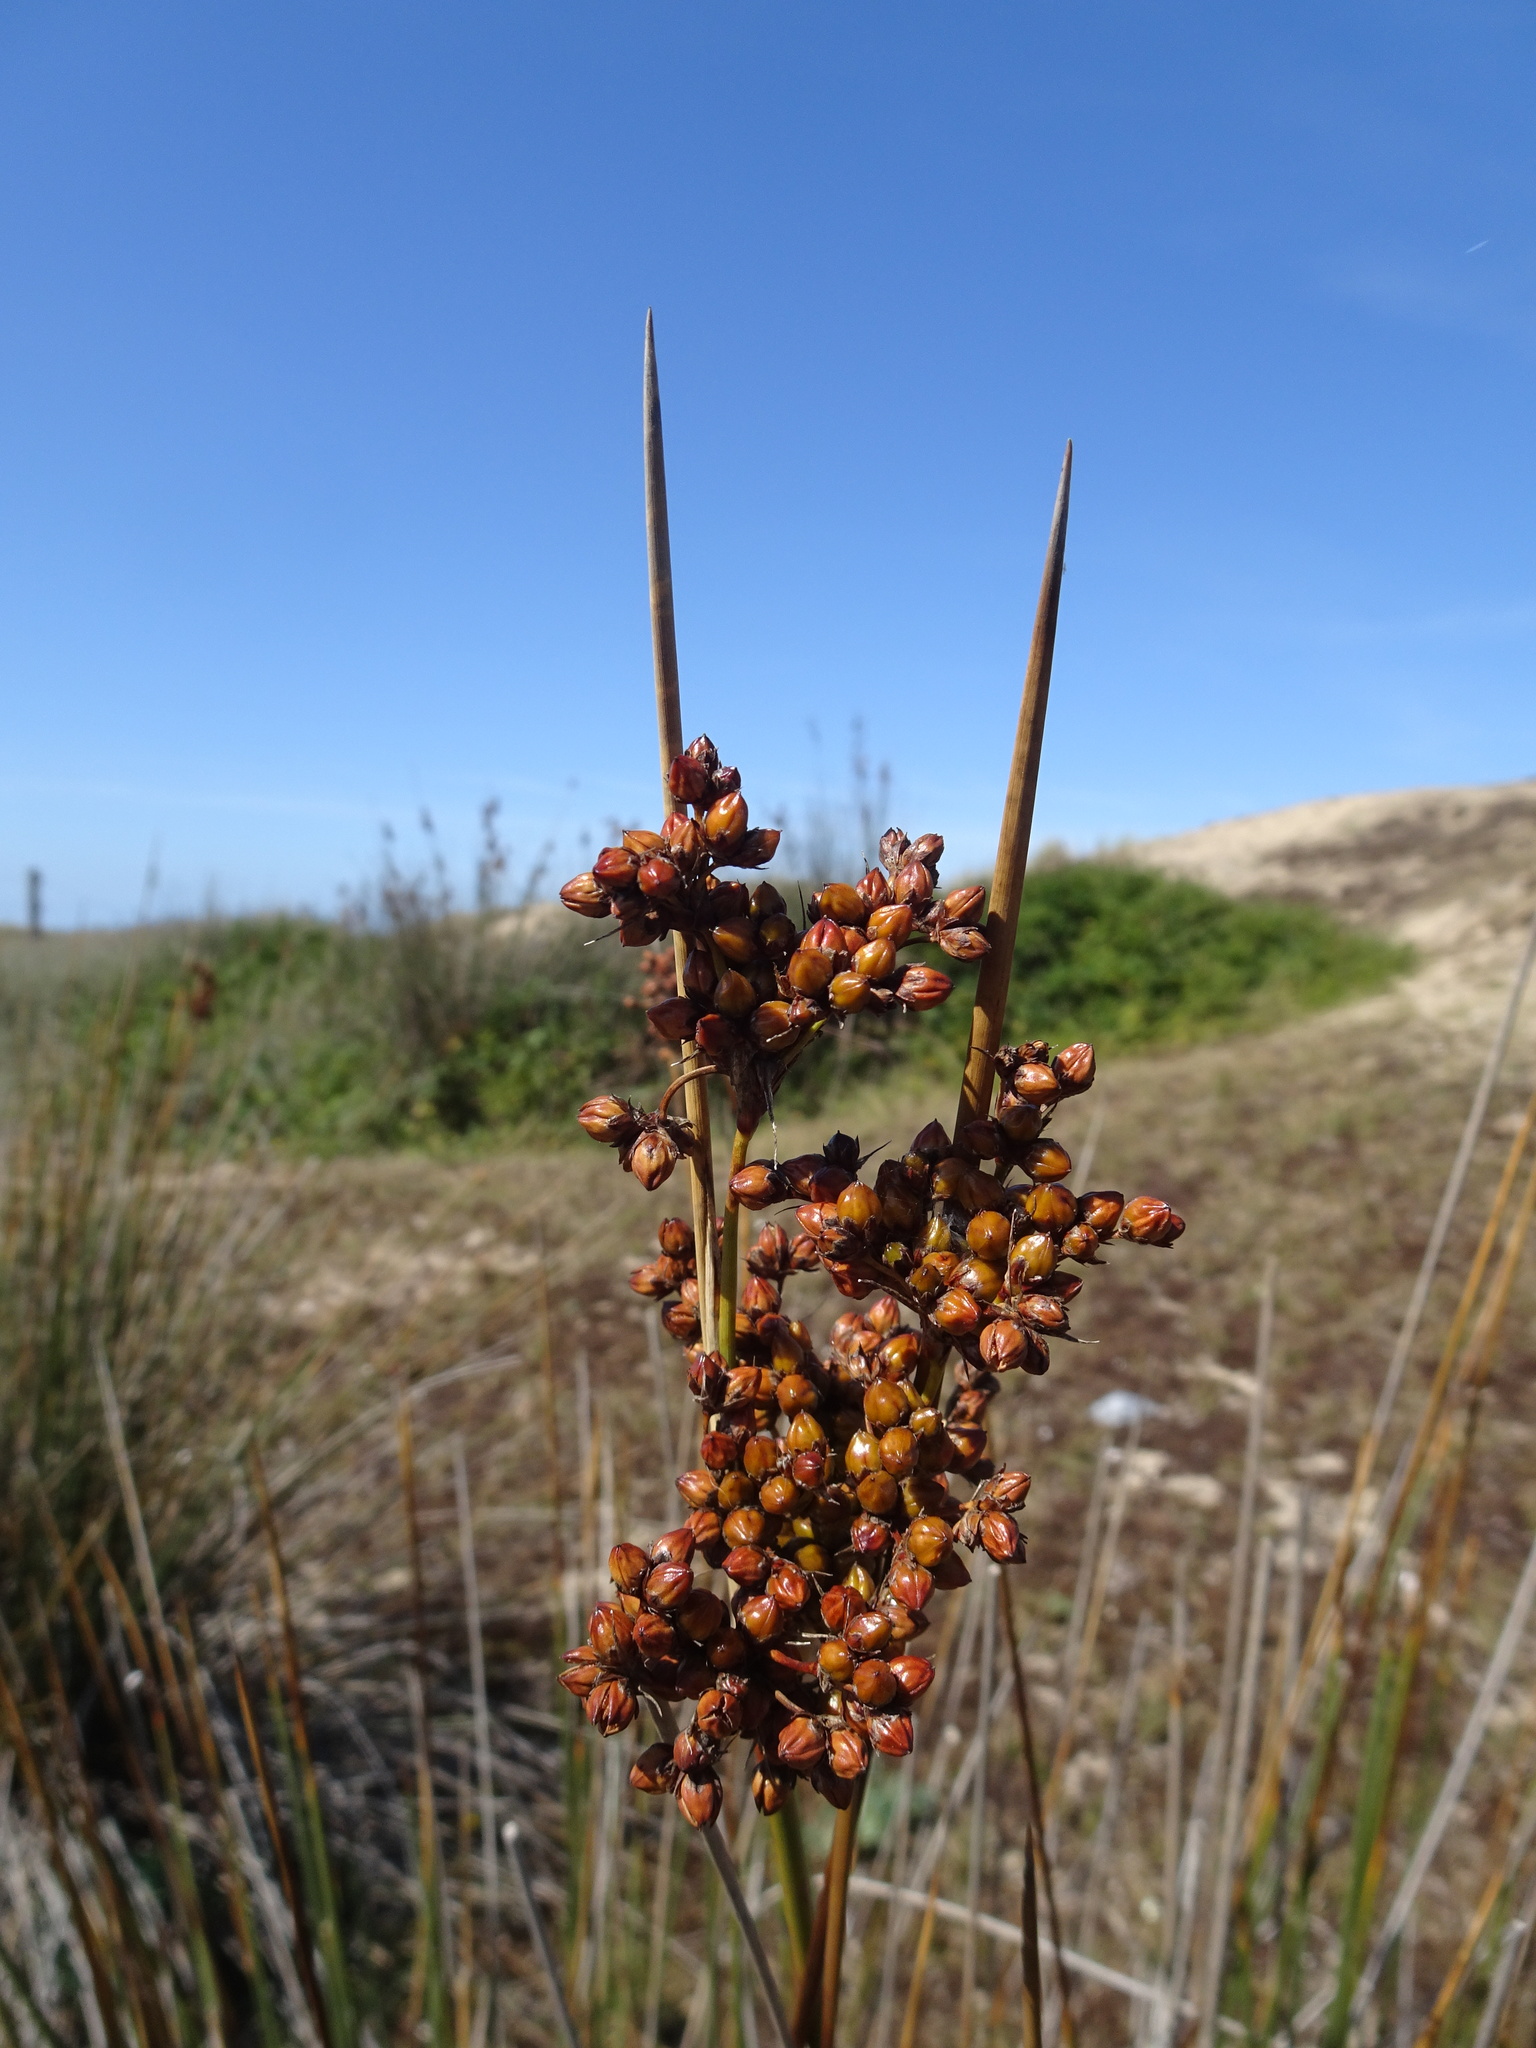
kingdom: Plantae
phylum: Tracheophyta
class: Liliopsida
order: Poales
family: Juncaceae
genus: Juncus
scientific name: Juncus acutus
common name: Sharp rush
